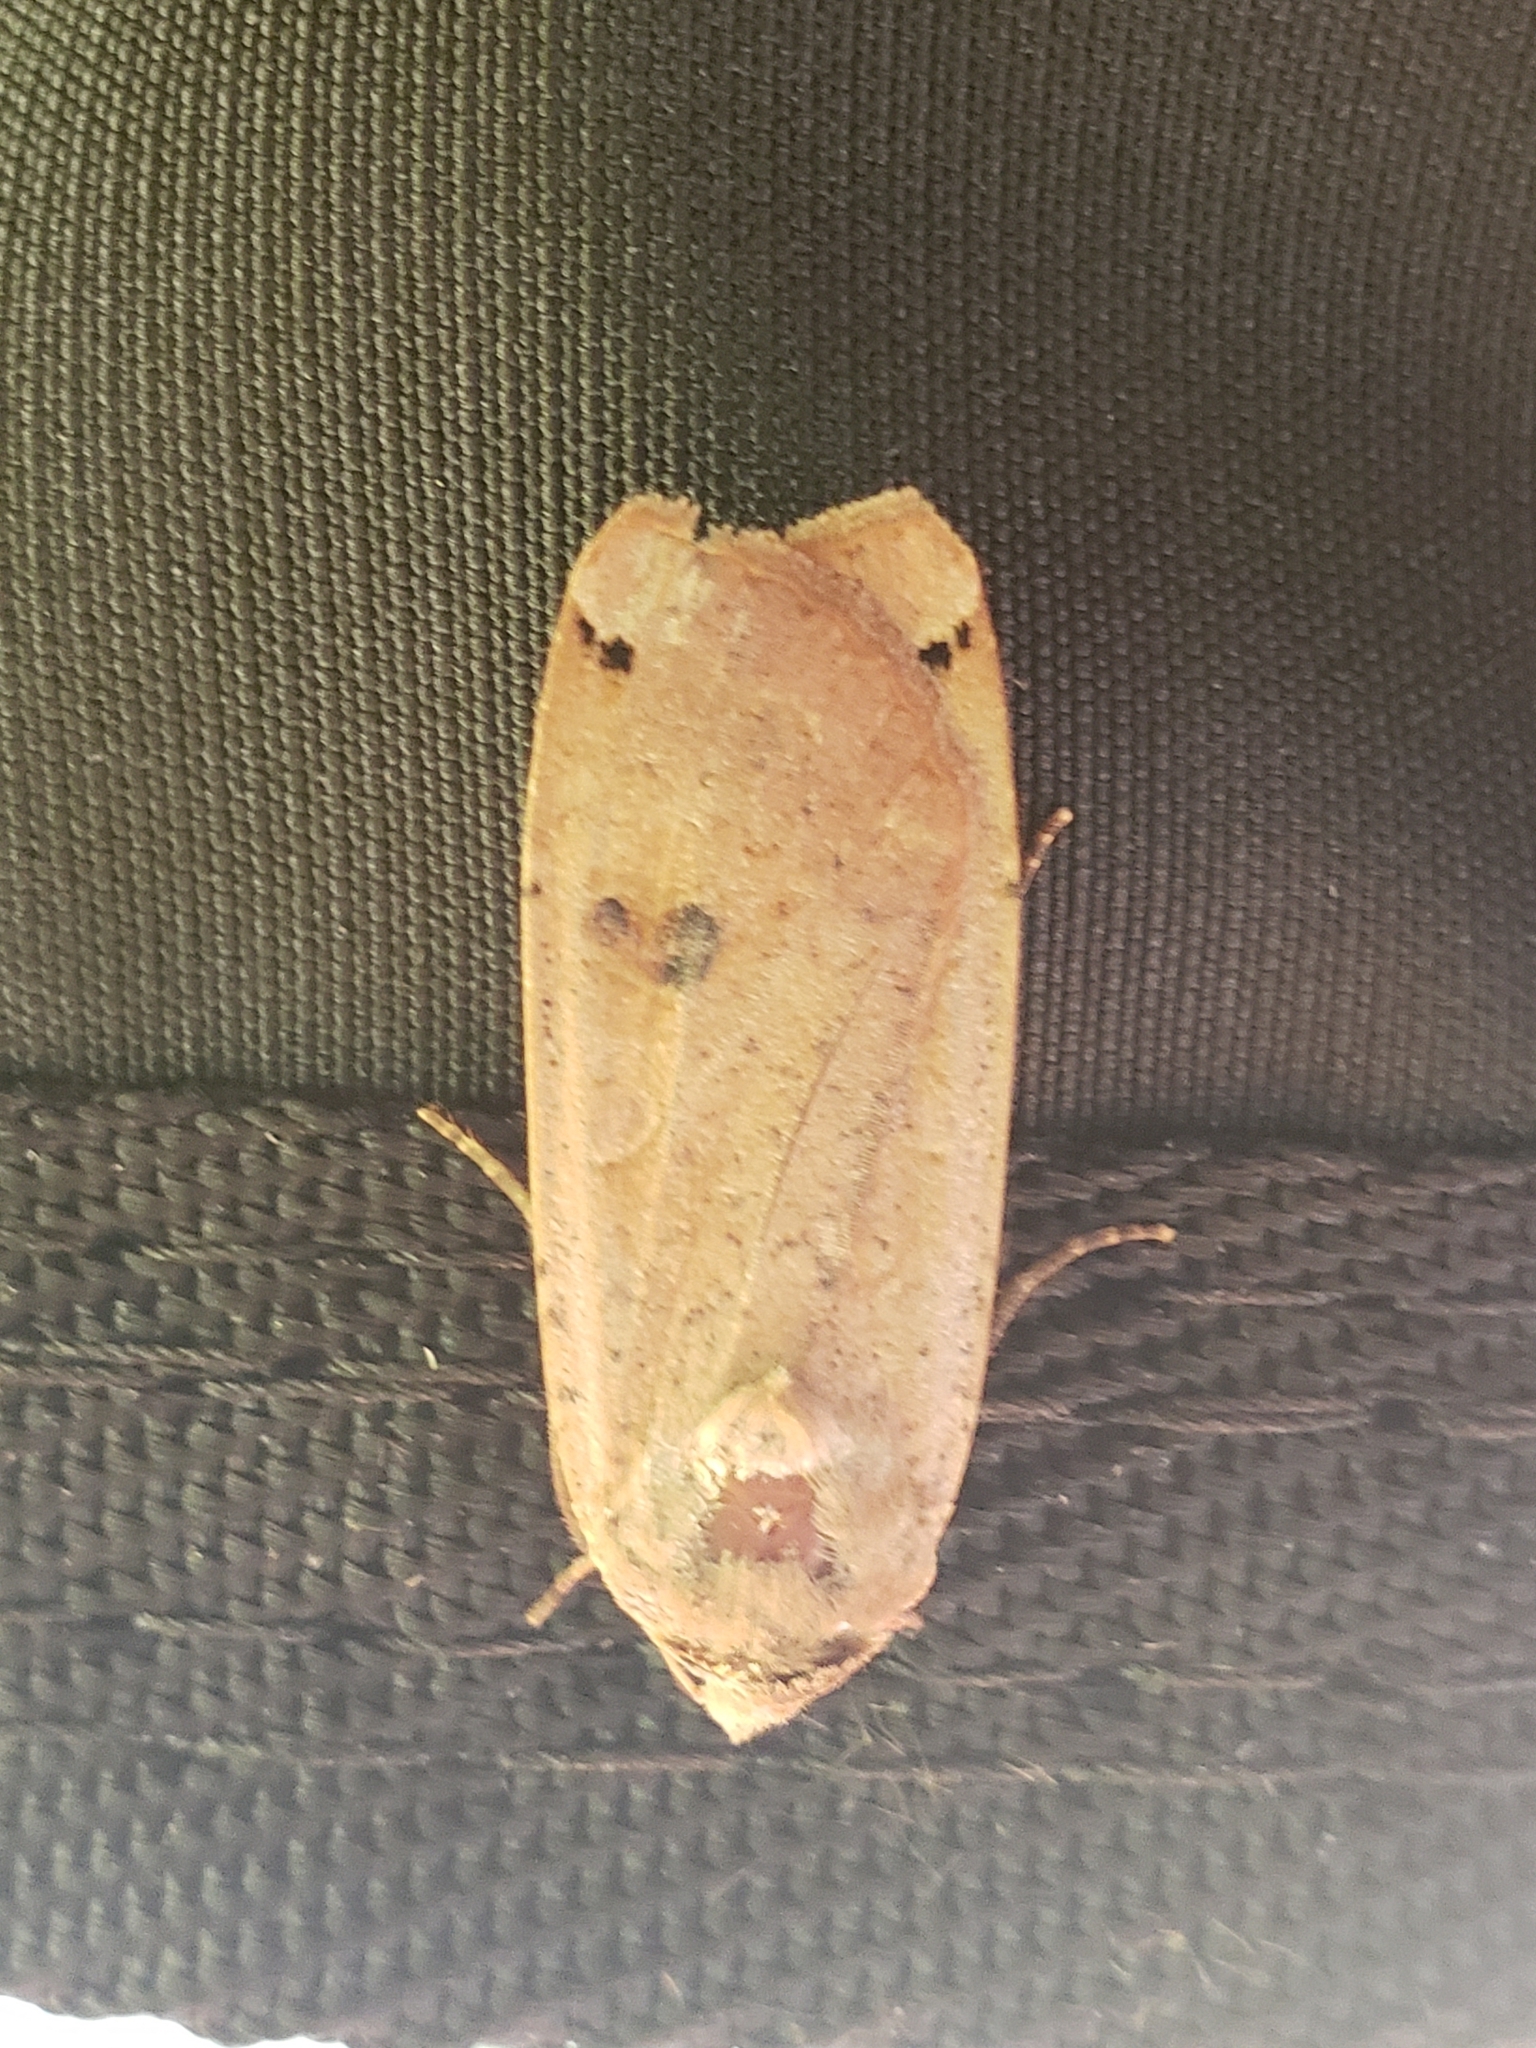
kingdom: Animalia
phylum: Arthropoda
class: Insecta
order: Lepidoptera
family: Noctuidae
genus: Noctua
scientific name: Noctua pronuba
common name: Large yellow underwing
